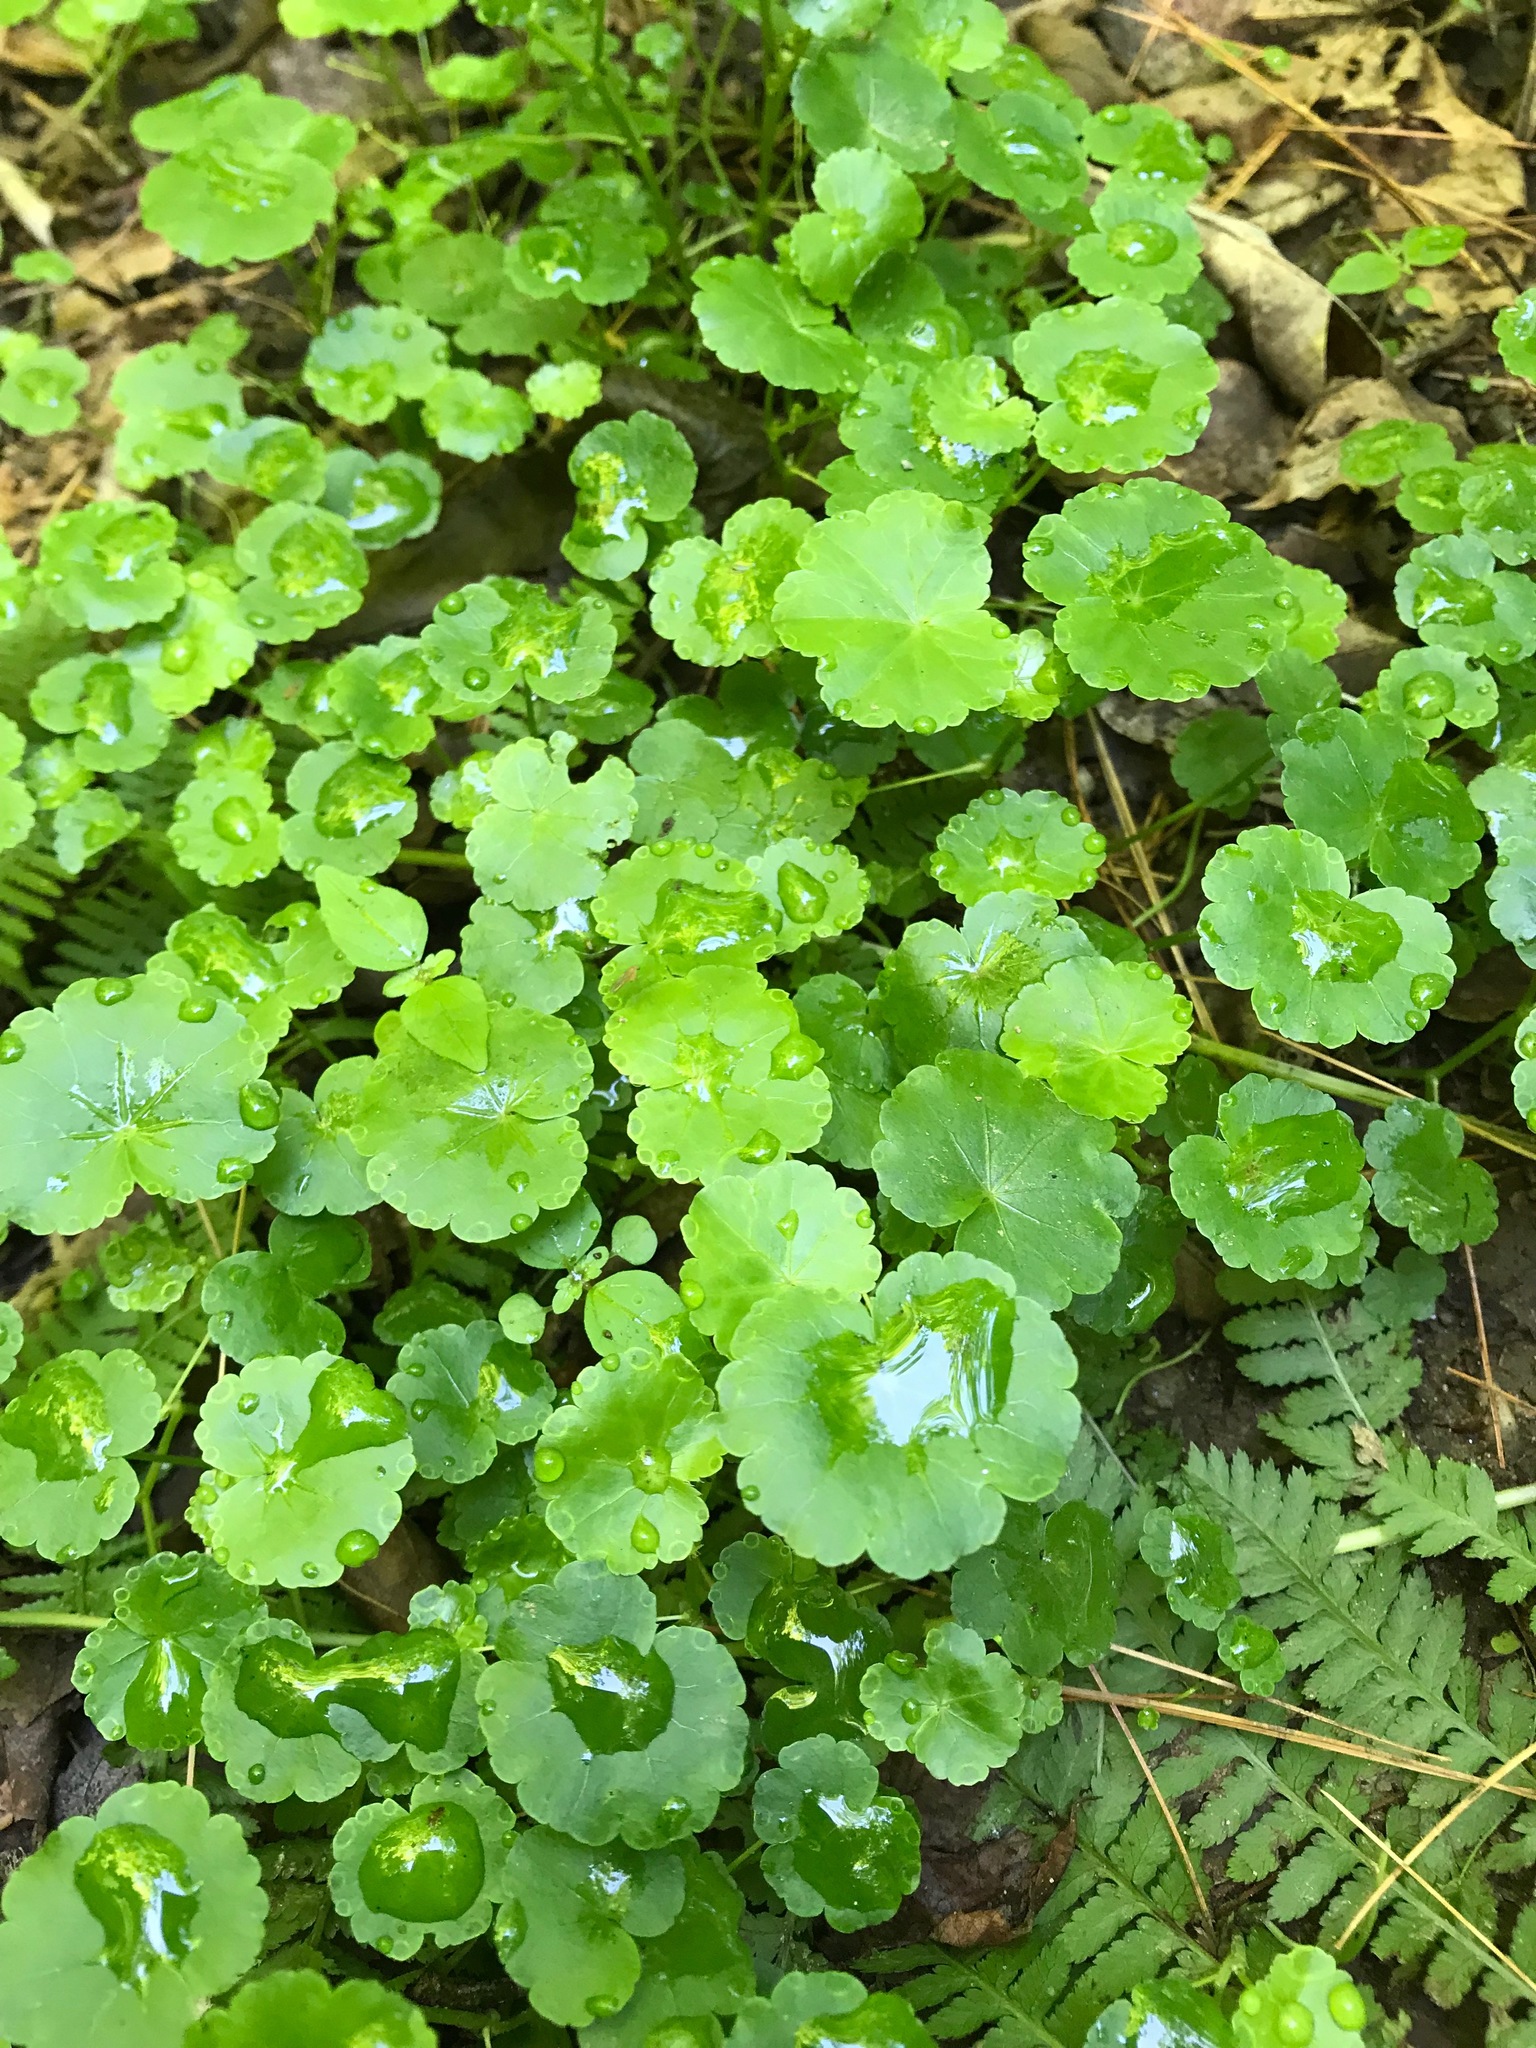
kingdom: Plantae
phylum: Tracheophyta
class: Magnoliopsida
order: Apiales
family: Araliaceae
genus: Hydrocotyle
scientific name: Hydrocotyle americana
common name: American water-pennywort
